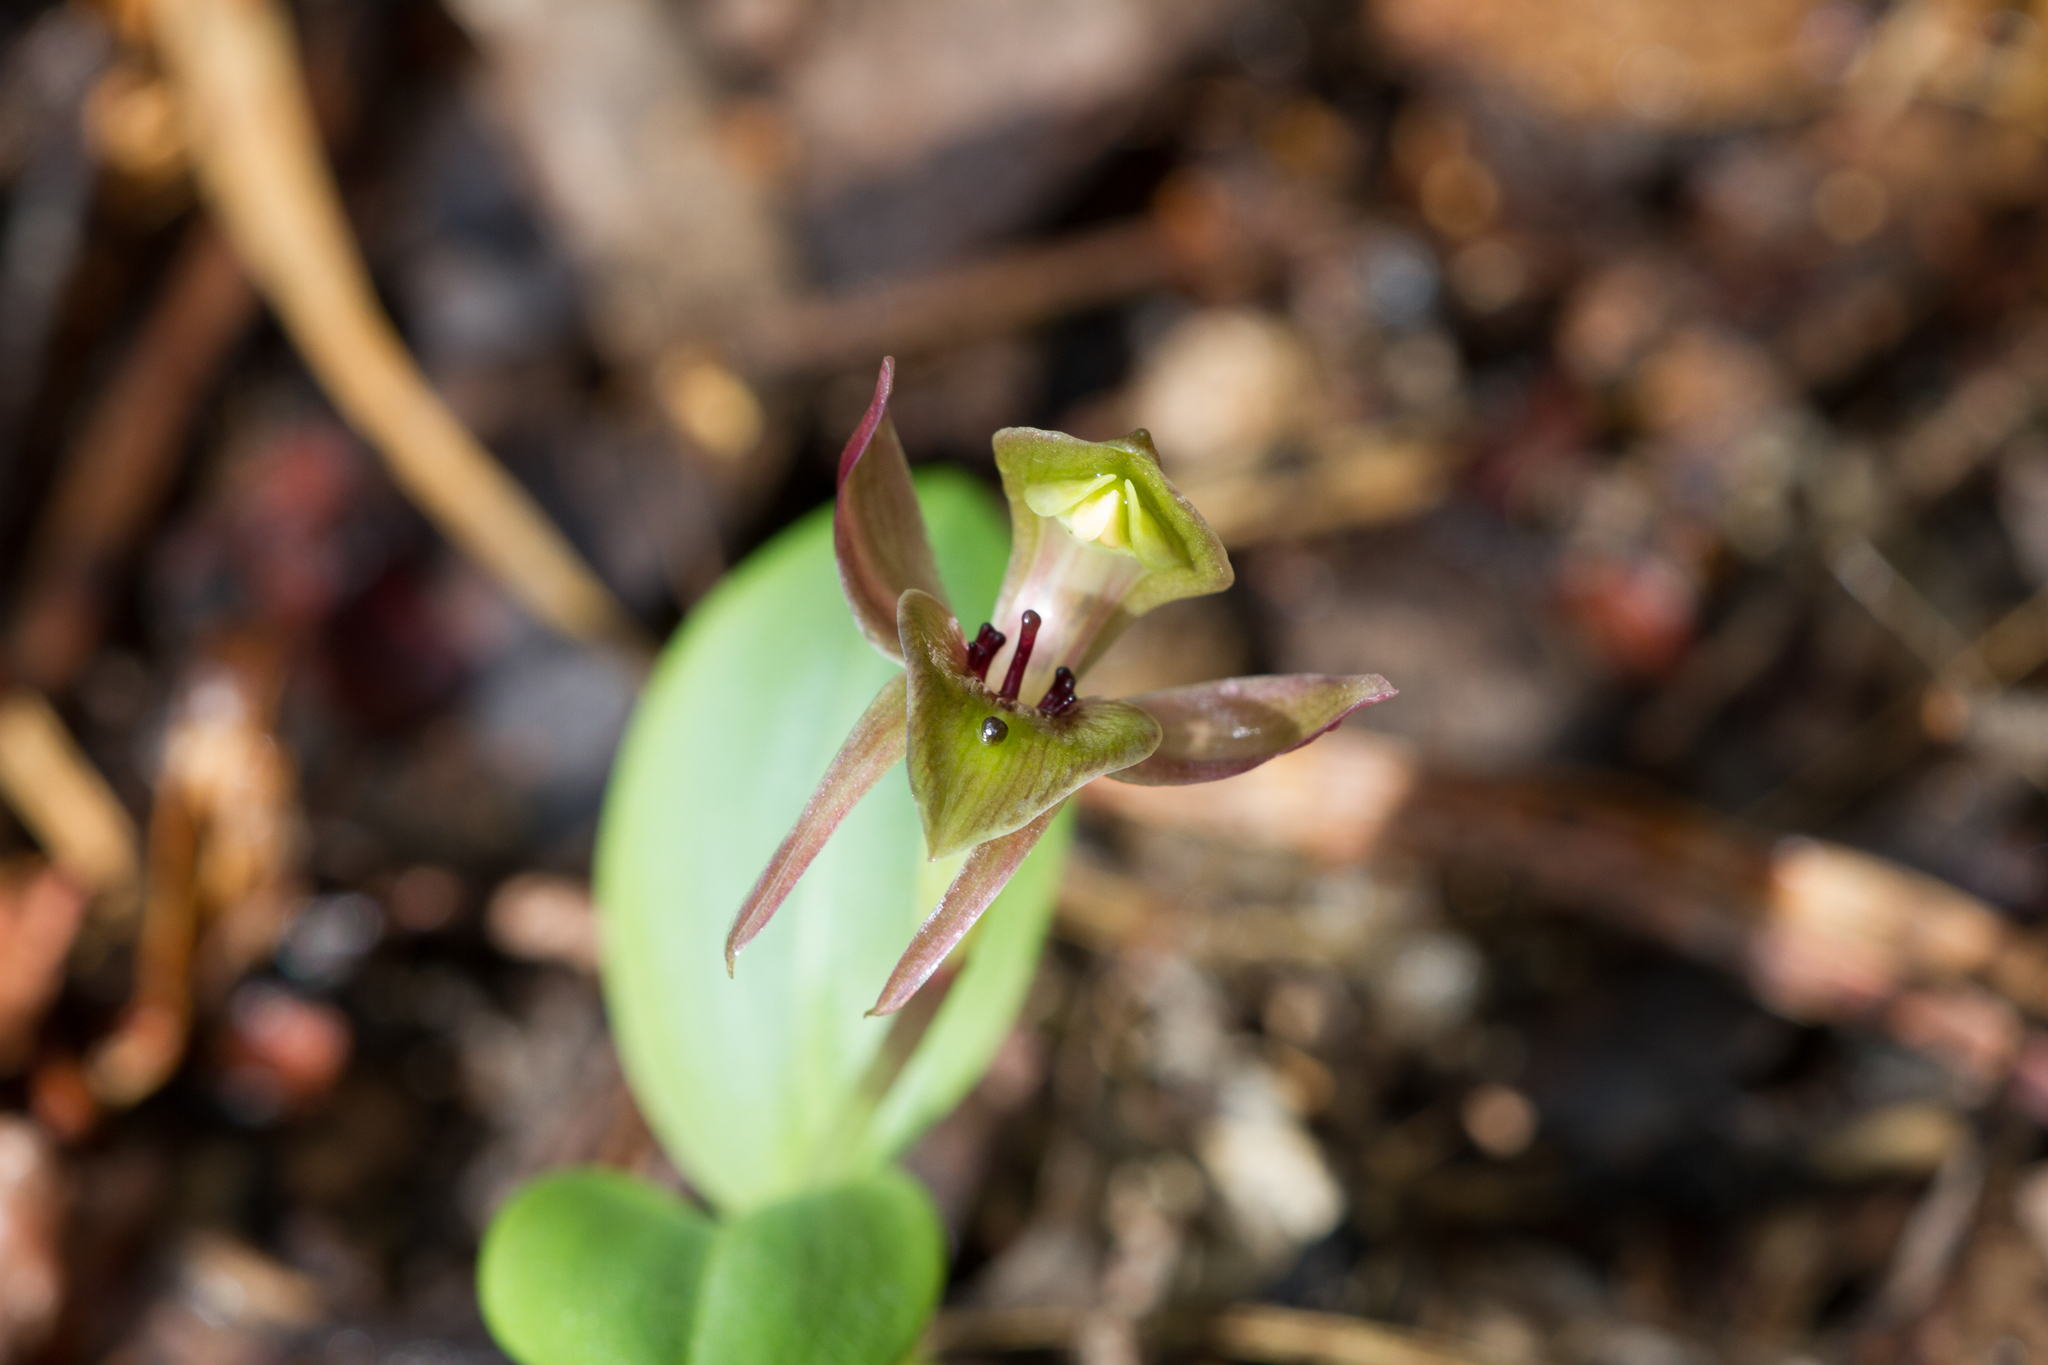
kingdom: Plantae
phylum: Tracheophyta
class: Liliopsida
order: Asparagales
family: Orchidaceae
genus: Chiloglottis
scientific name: Chiloglottis valida
